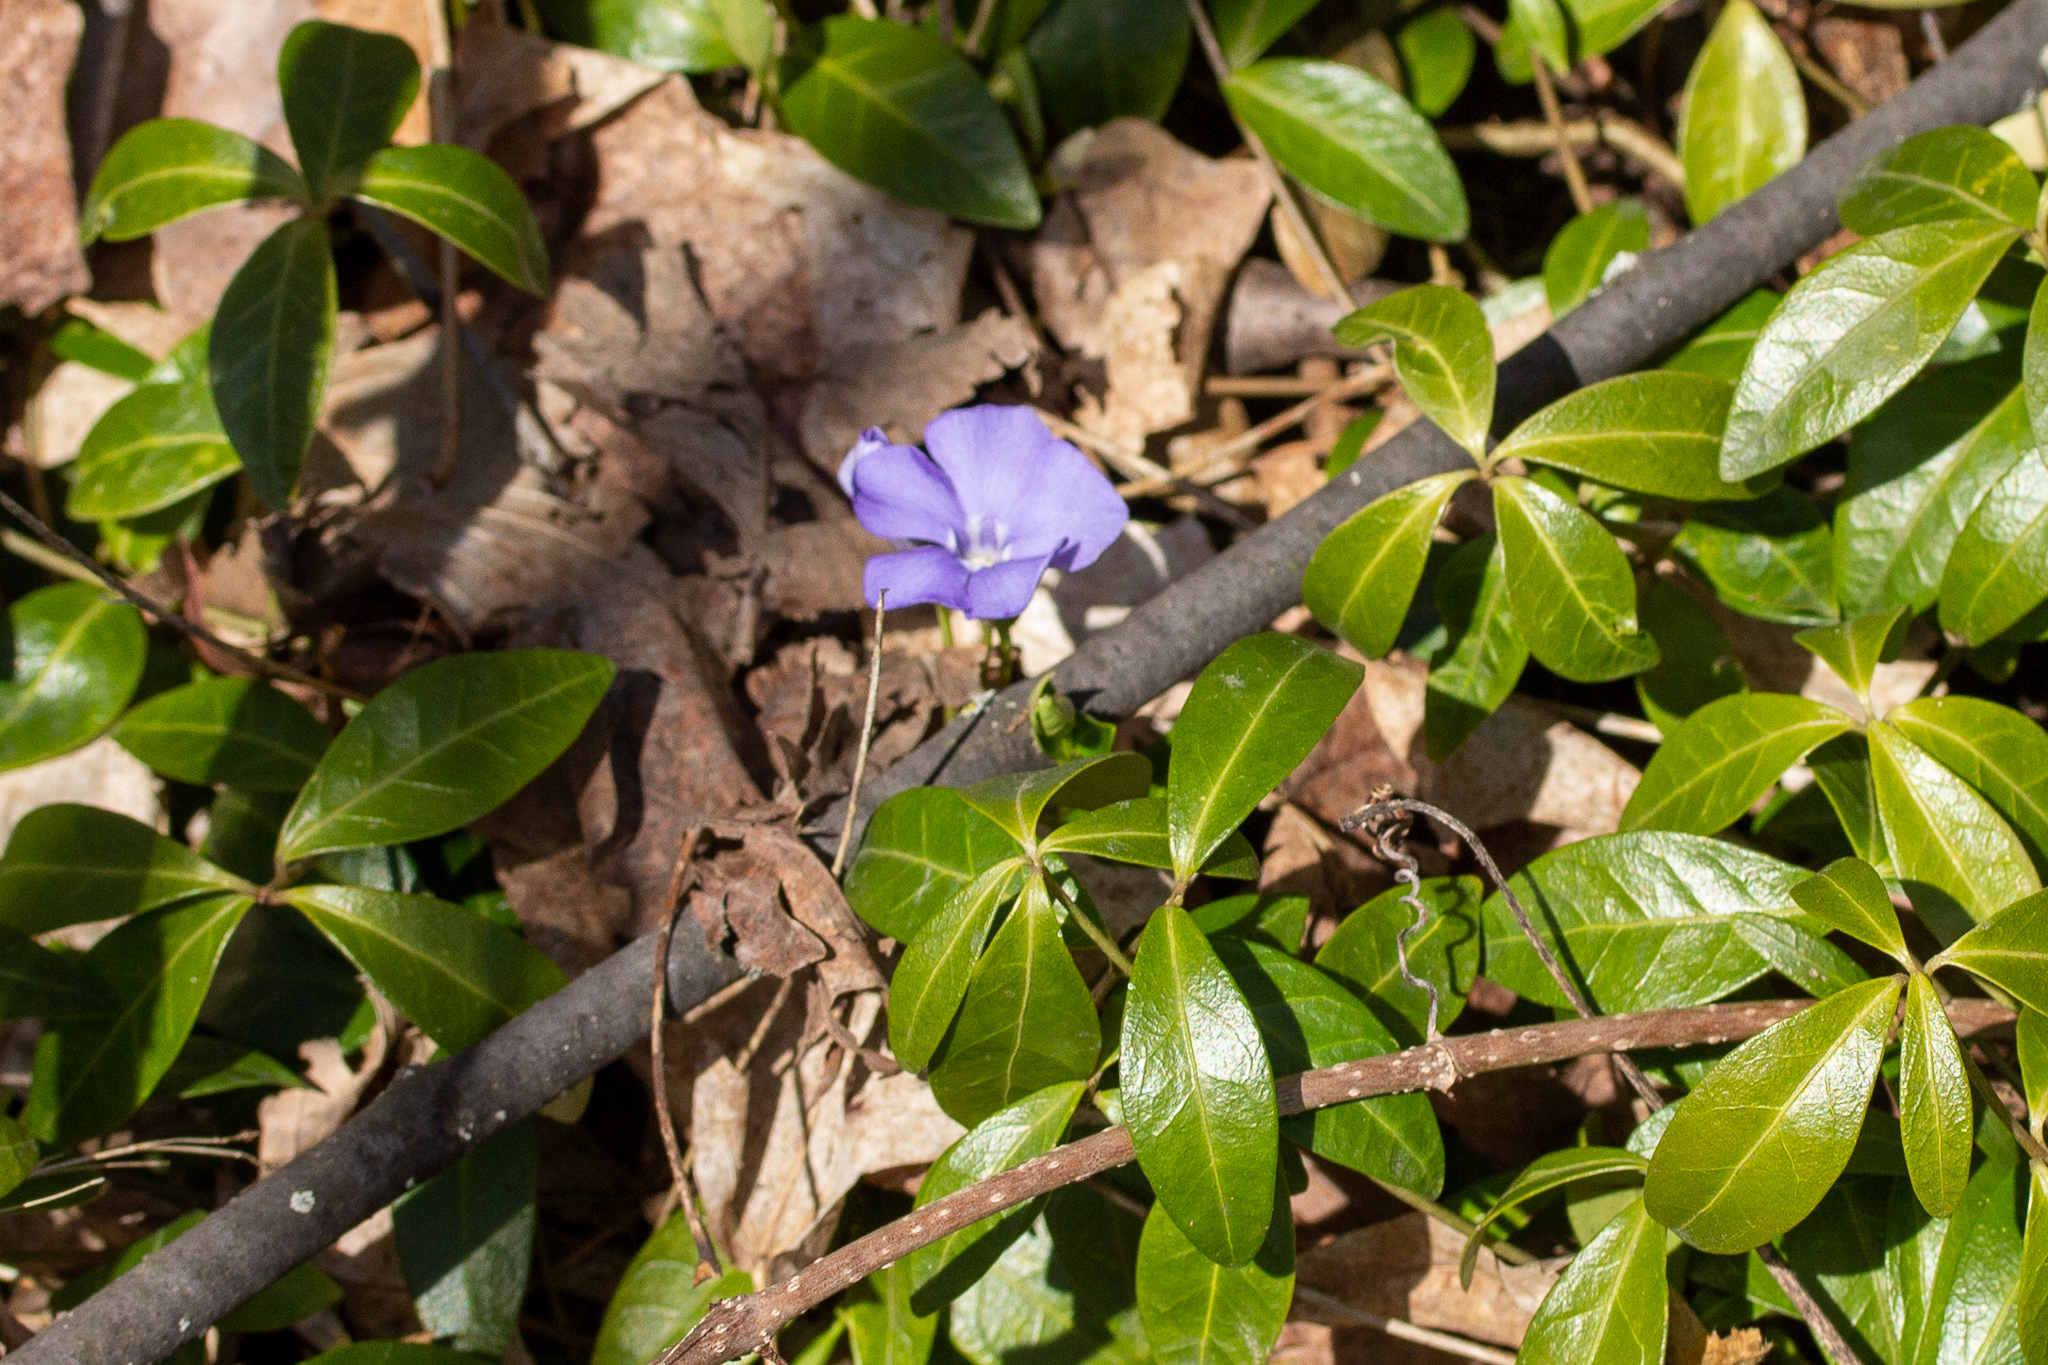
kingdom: Plantae
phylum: Tracheophyta
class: Magnoliopsida
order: Gentianales
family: Apocynaceae
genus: Vinca
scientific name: Vinca minor
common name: Lesser periwinkle
